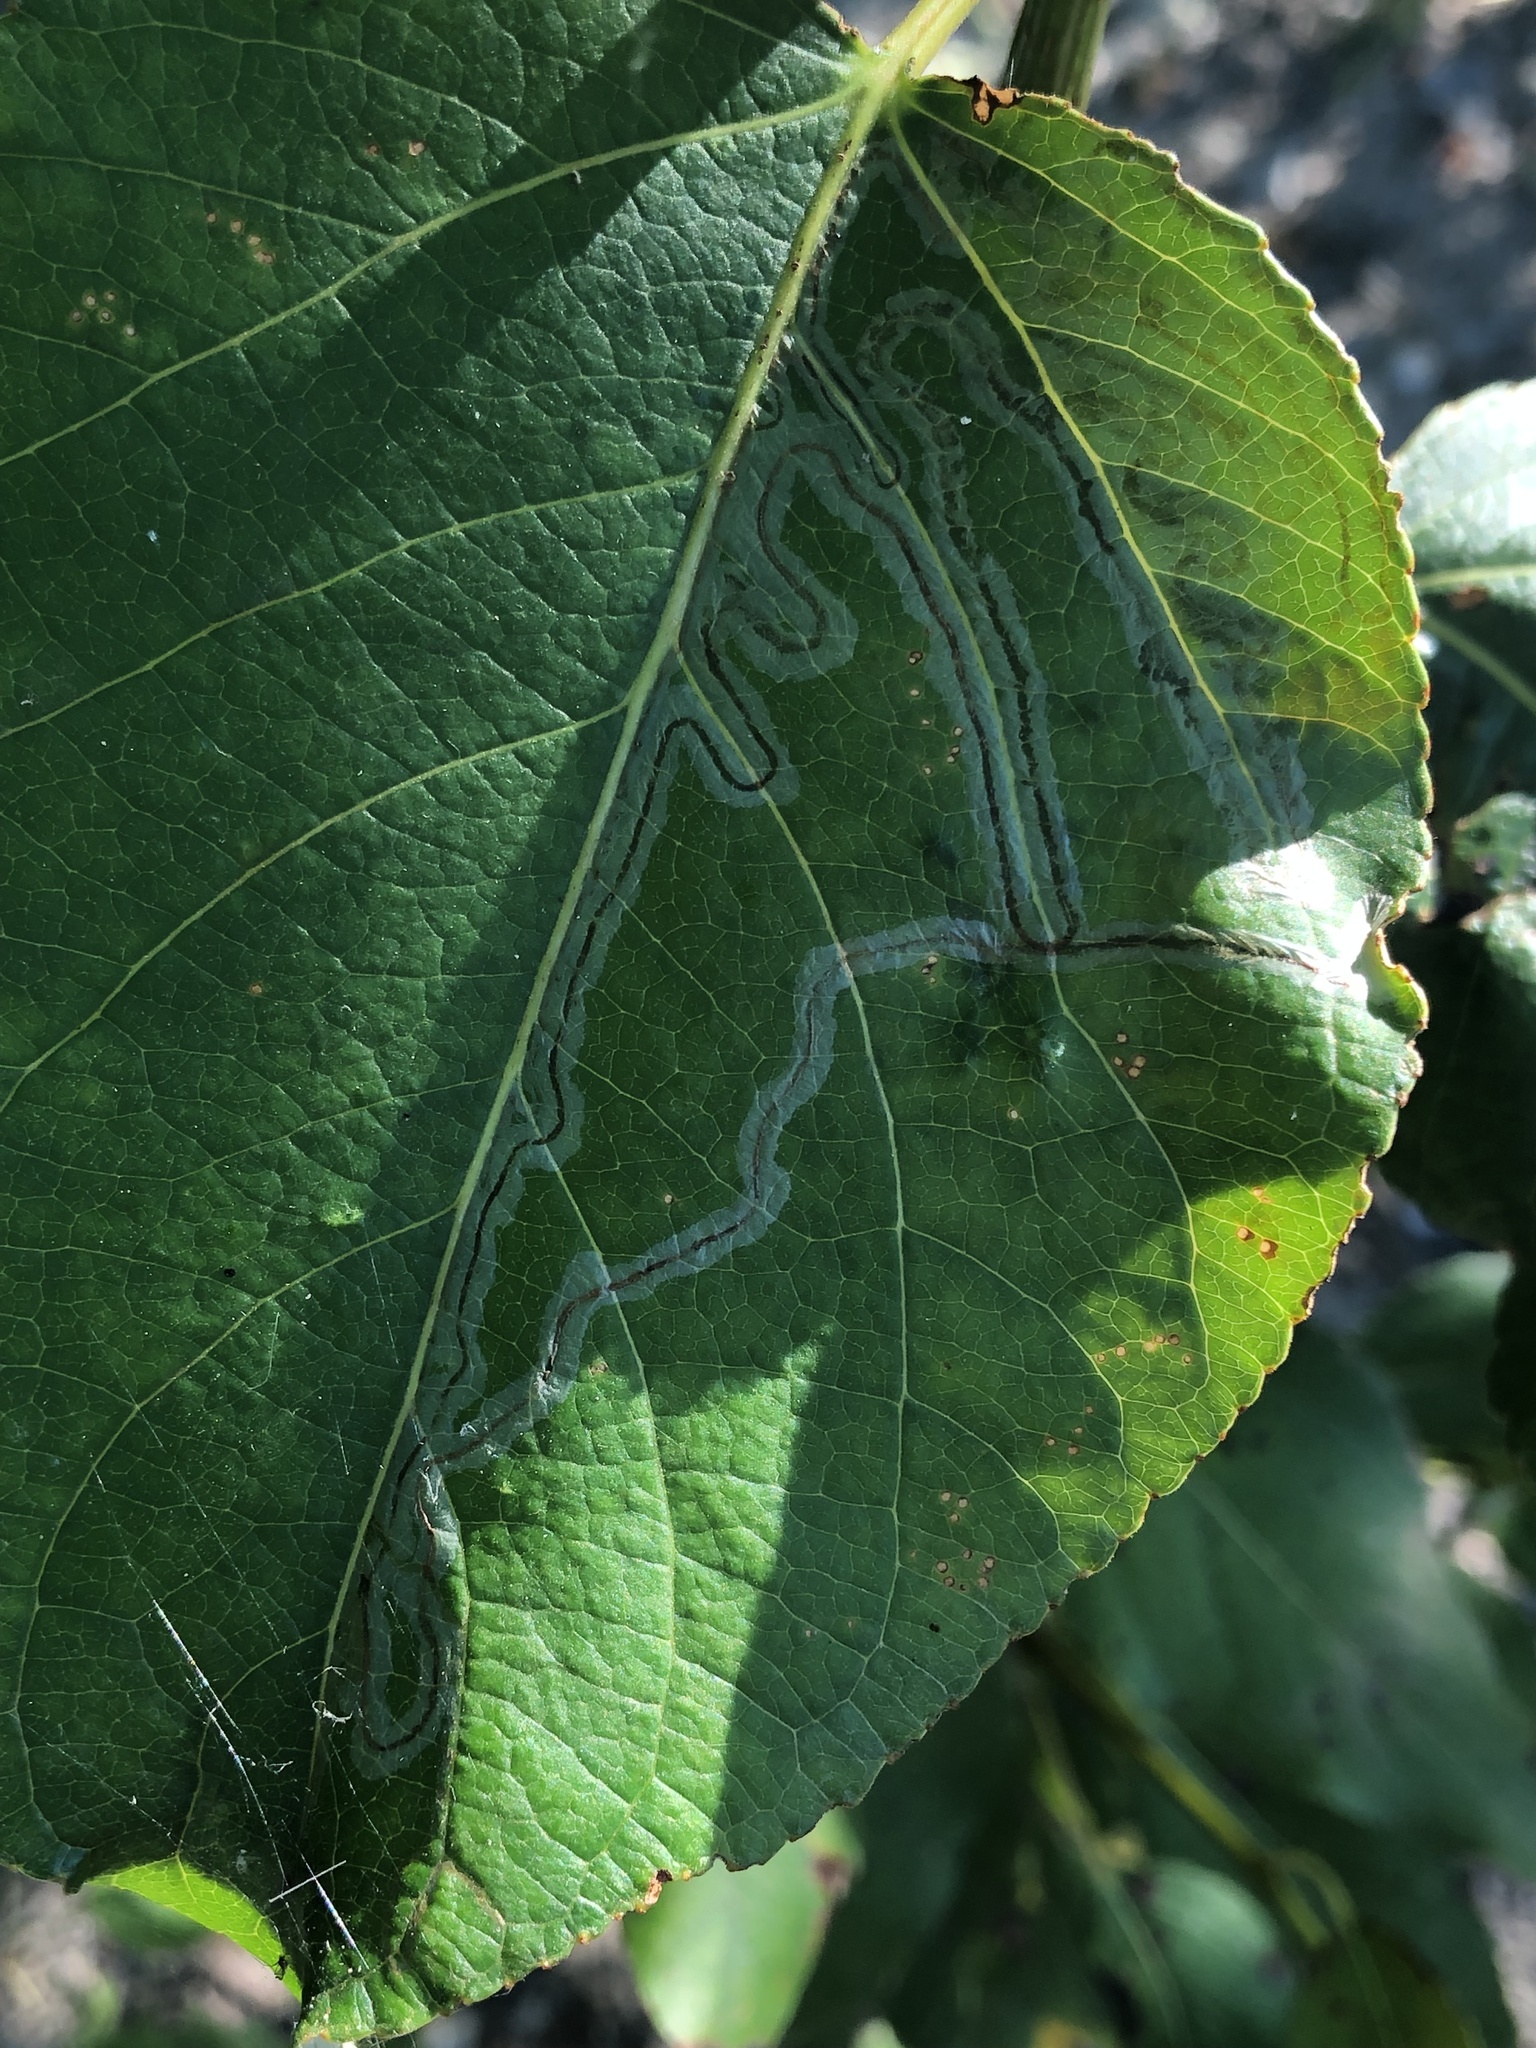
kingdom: Animalia
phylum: Arthropoda
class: Insecta
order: Lepidoptera
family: Gracillariidae
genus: Phyllocnistis
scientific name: Phyllocnistis populiella
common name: Aspen serpentine leafminer moth
